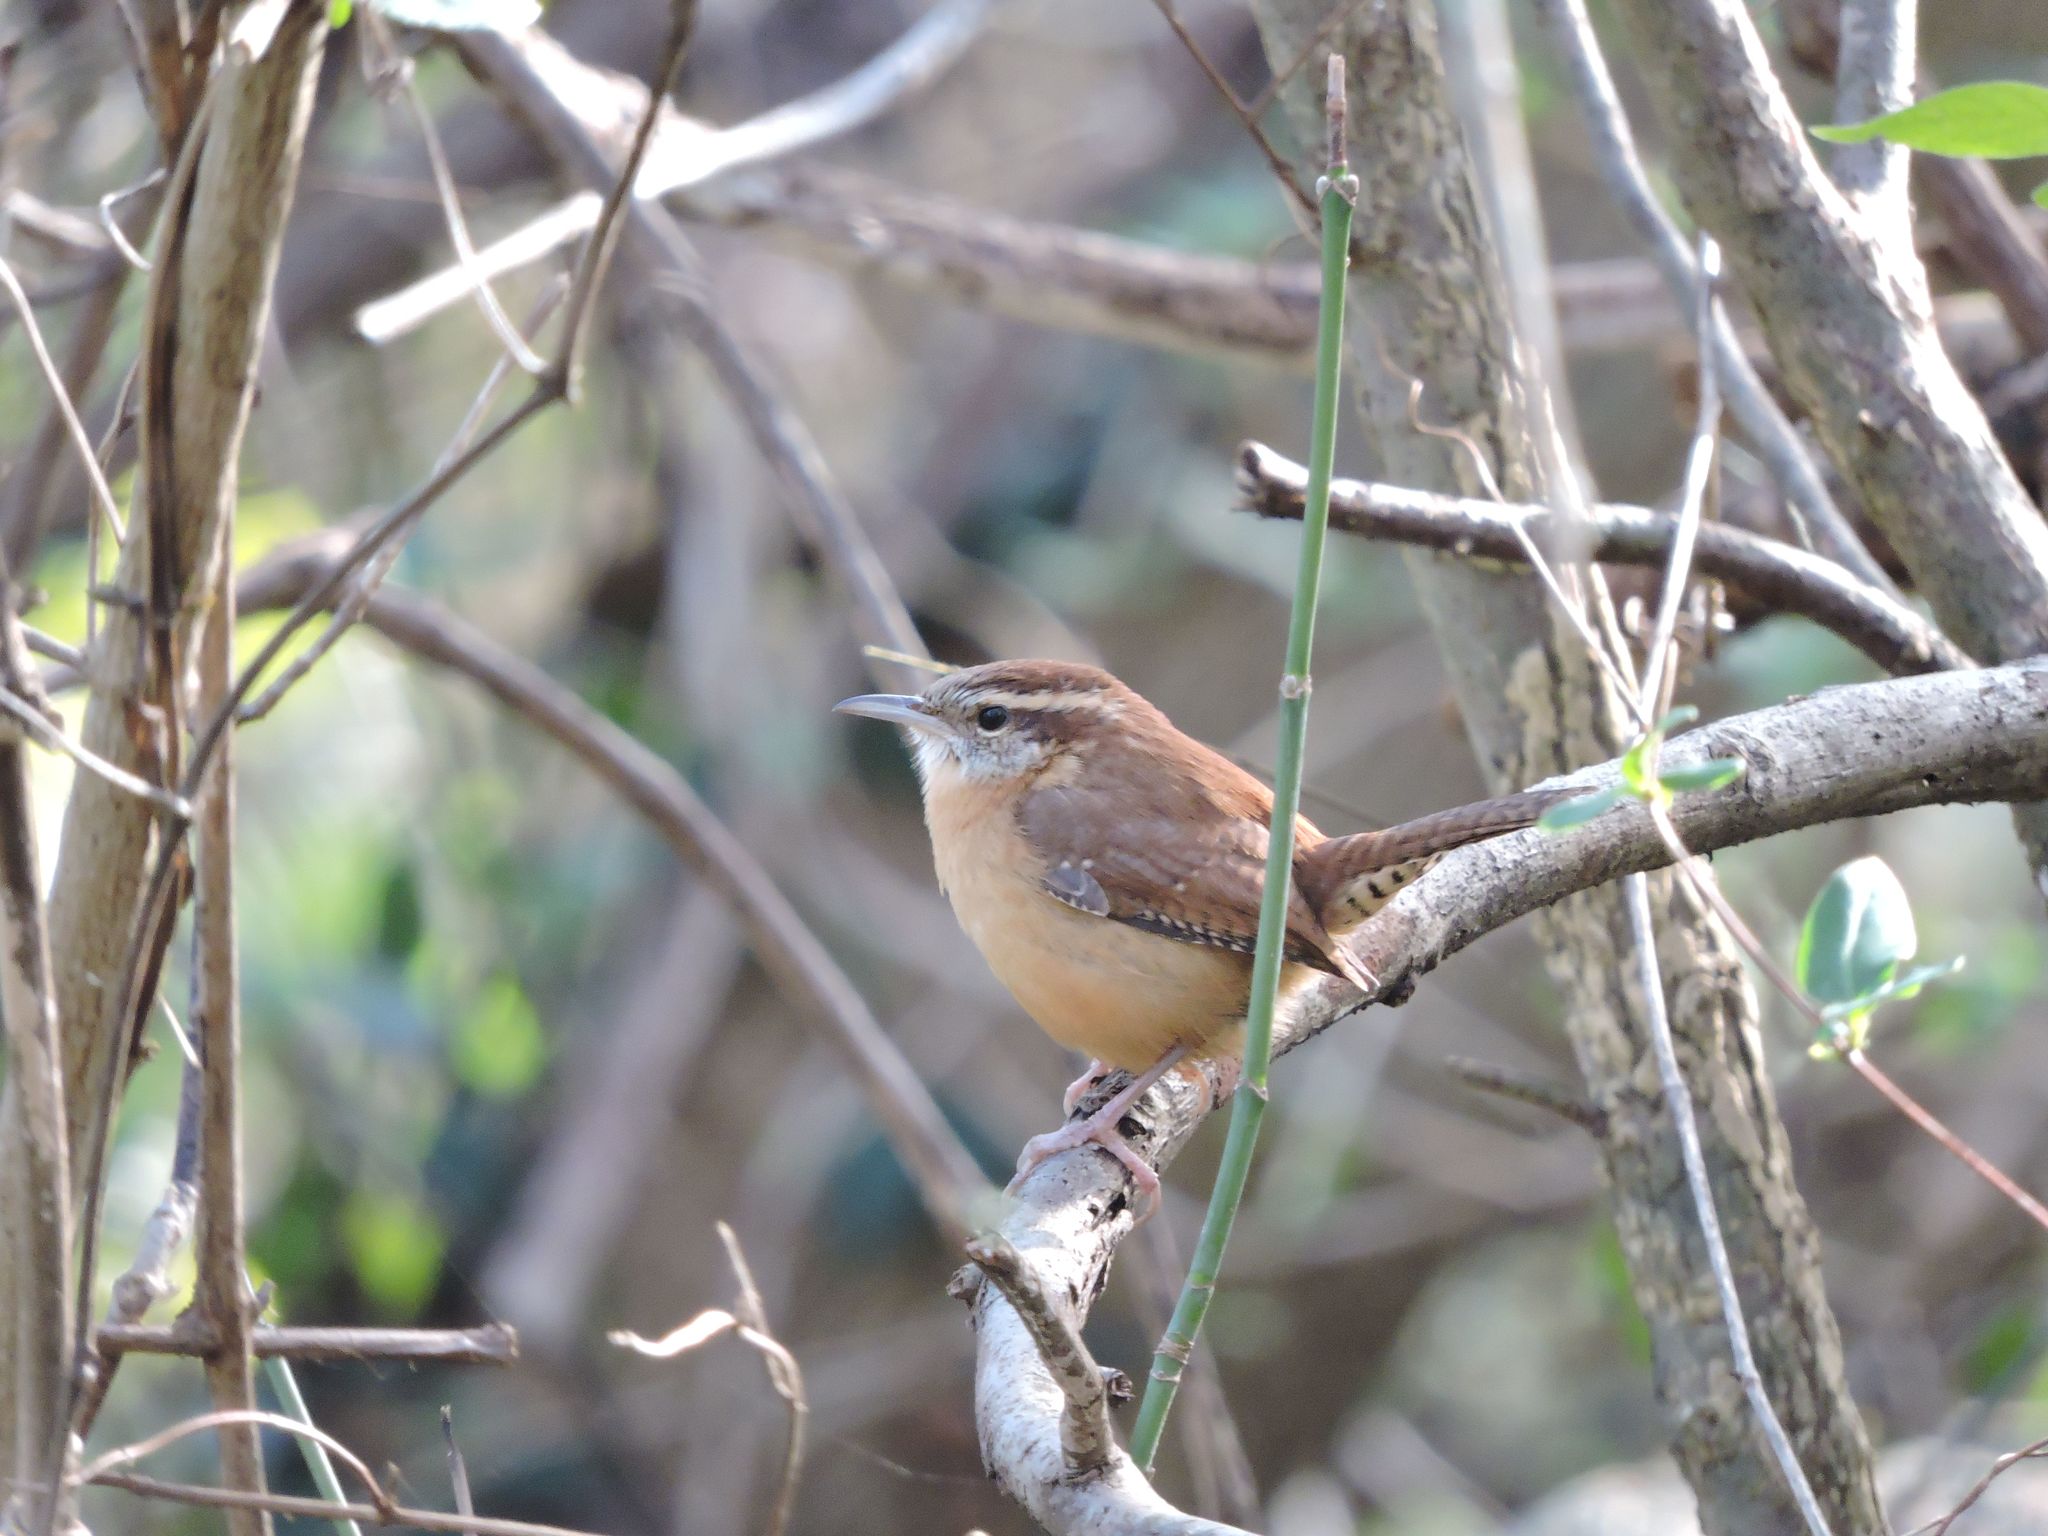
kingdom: Animalia
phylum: Chordata
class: Aves
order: Passeriformes
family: Troglodytidae
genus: Thryothorus
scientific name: Thryothorus ludovicianus
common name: Carolina wren
